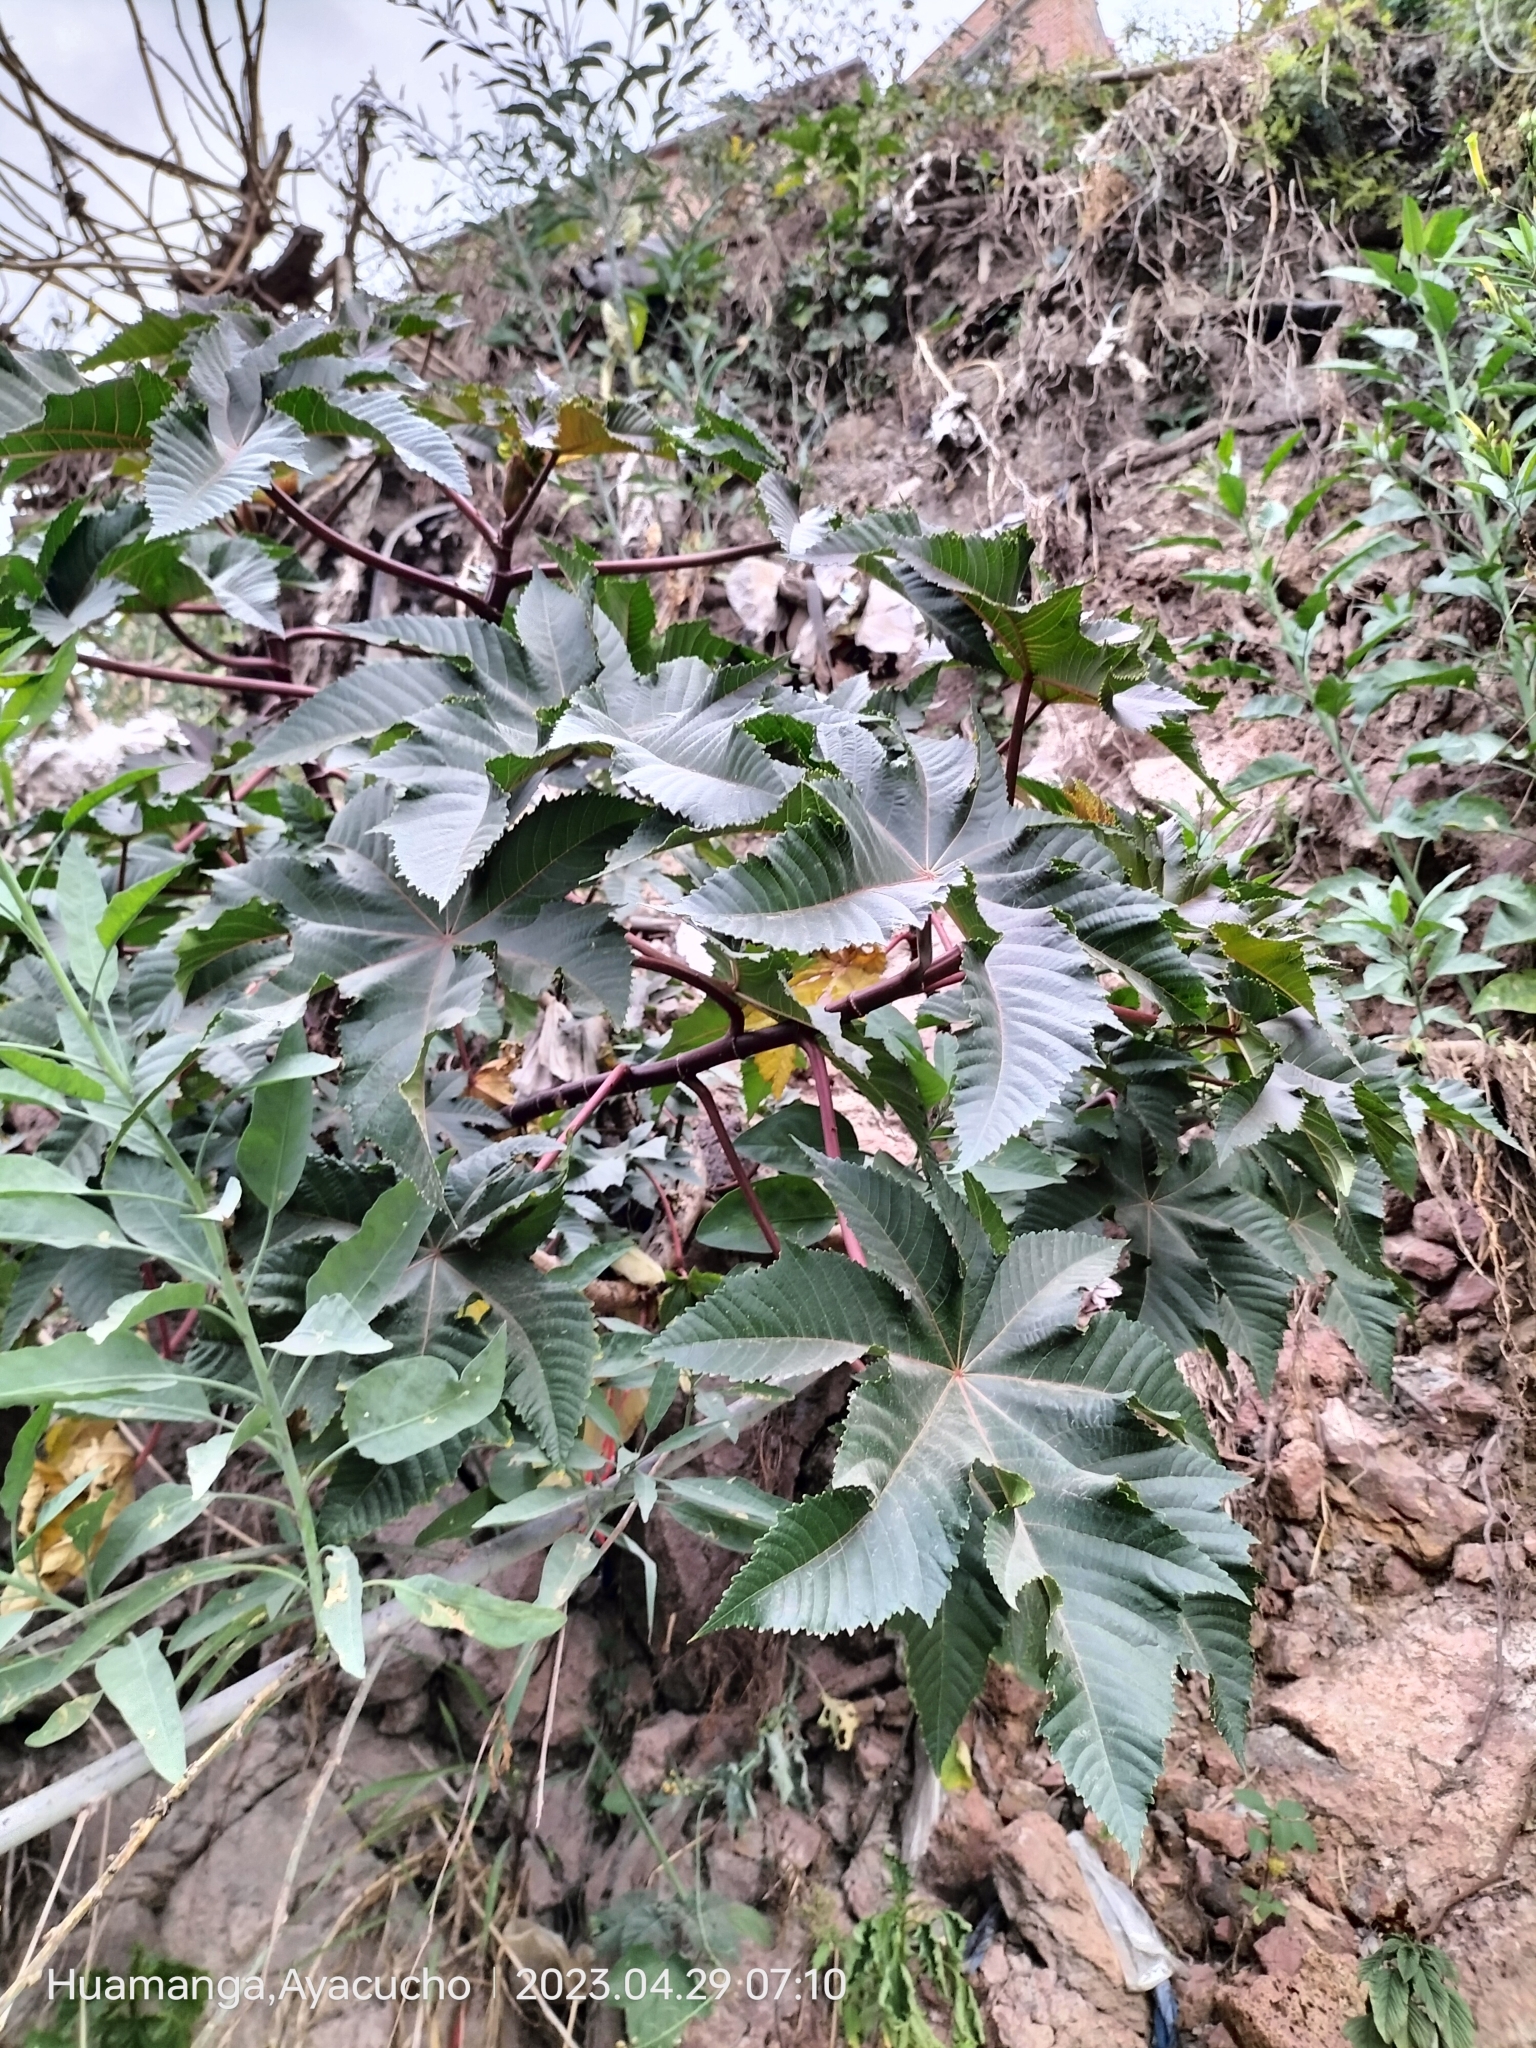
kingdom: Plantae
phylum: Tracheophyta
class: Magnoliopsida
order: Malpighiales
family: Euphorbiaceae
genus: Ricinus
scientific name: Ricinus communis
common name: Castor-oil-plant
